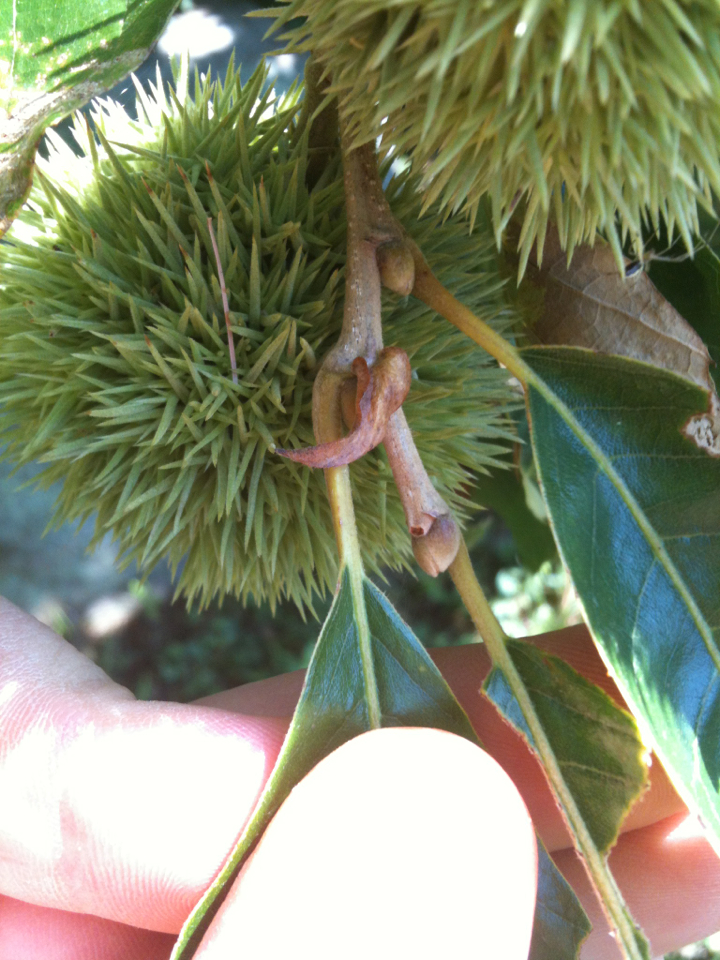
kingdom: Plantae
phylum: Tracheophyta
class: Magnoliopsida
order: Fagales
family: Fagaceae
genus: Castanea
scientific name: Castanea mollissima
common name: Chinese chestnut
